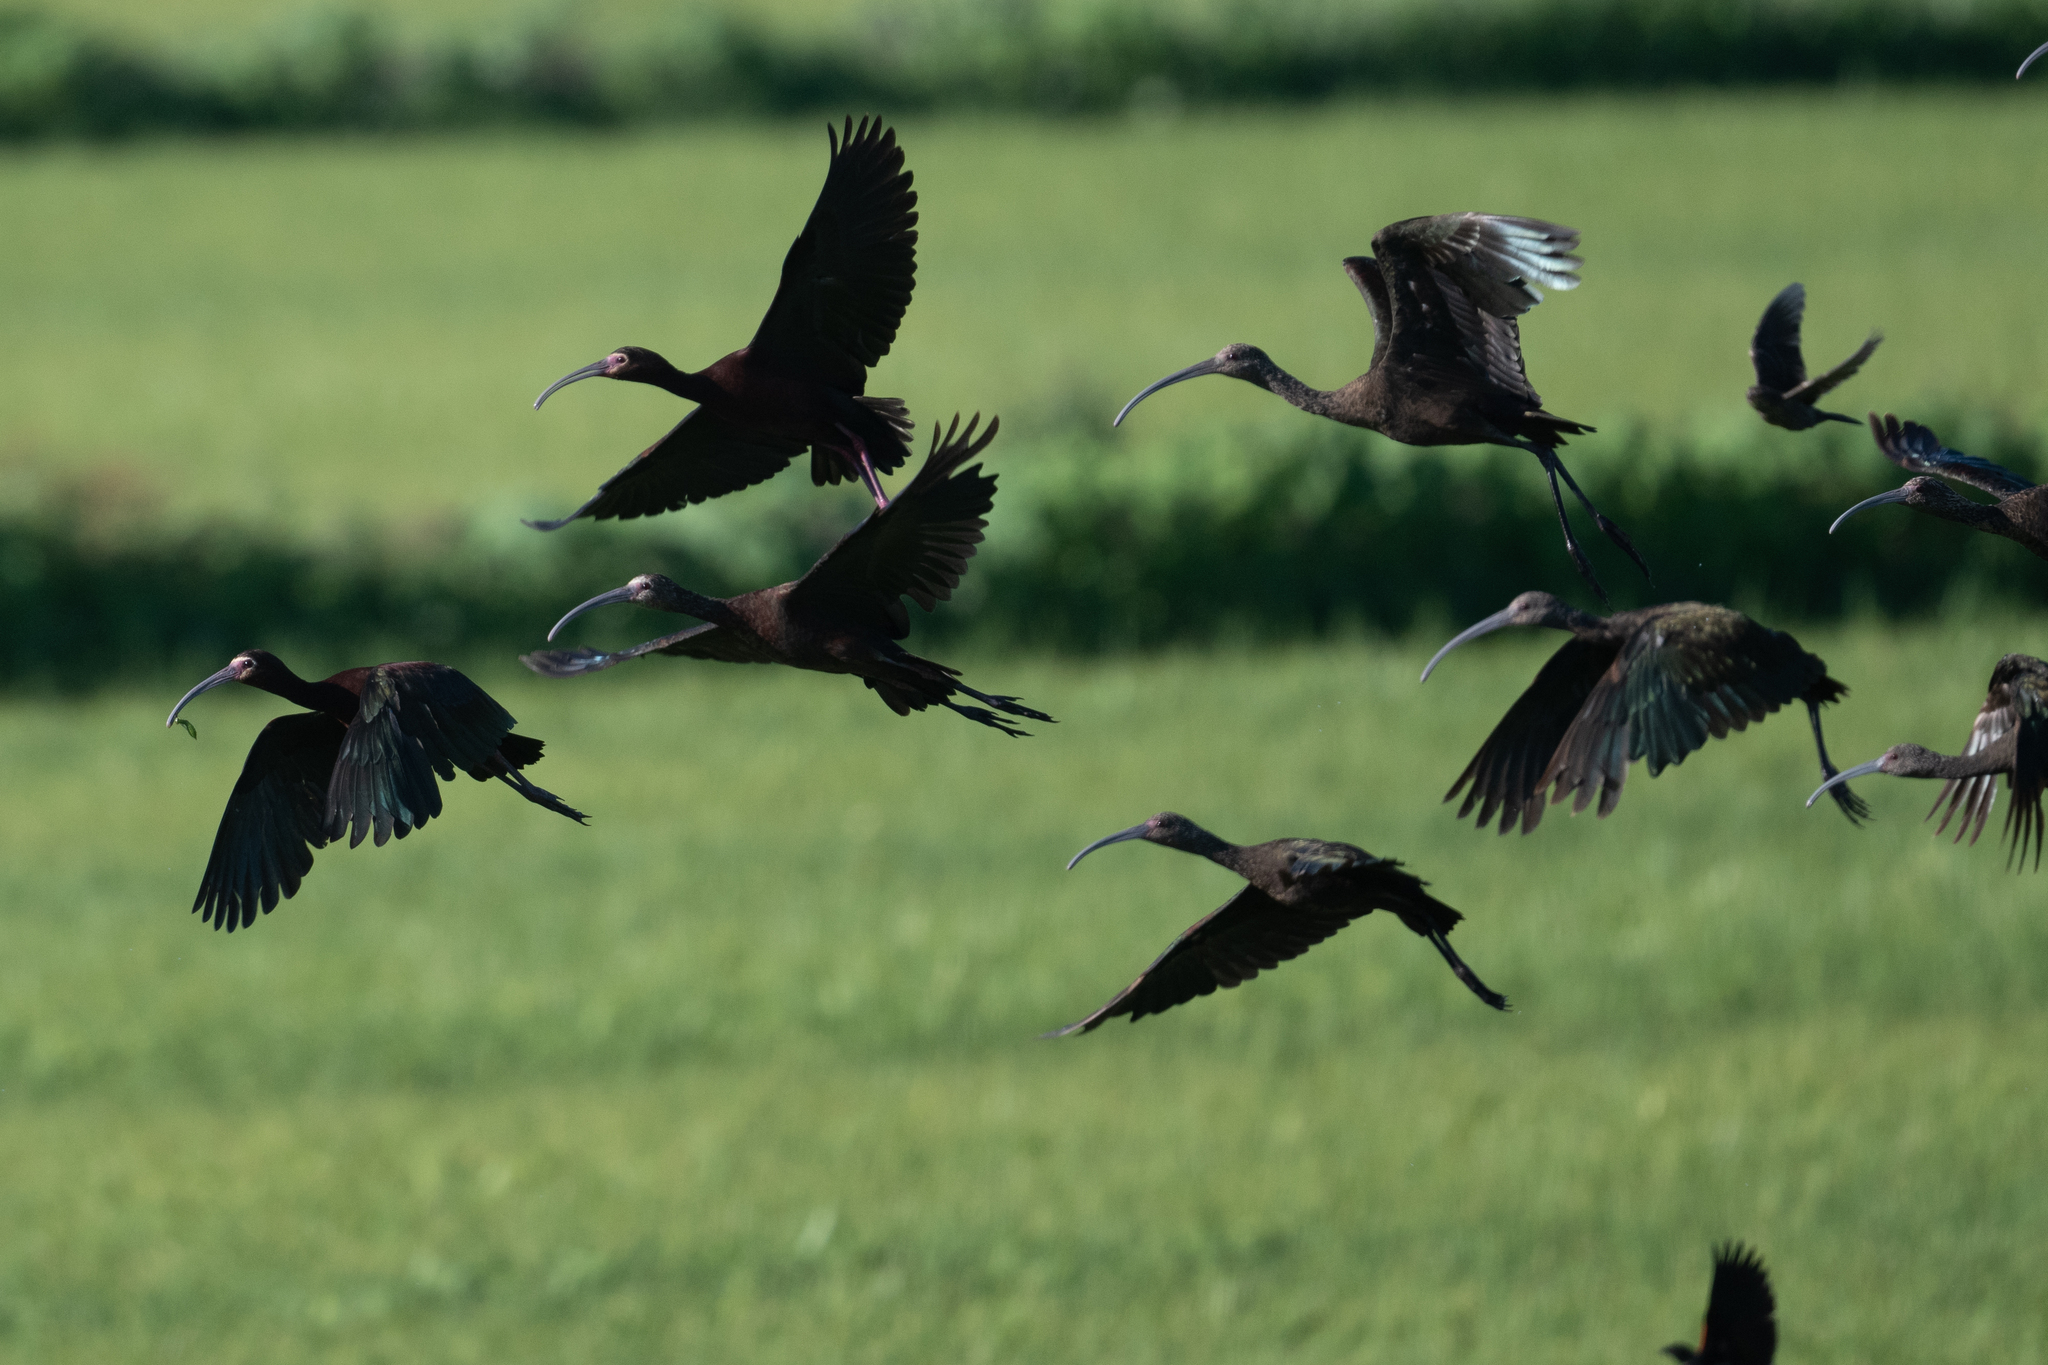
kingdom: Animalia
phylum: Chordata
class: Aves
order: Pelecaniformes
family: Threskiornithidae
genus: Plegadis
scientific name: Plegadis chihi
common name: White-faced ibis
